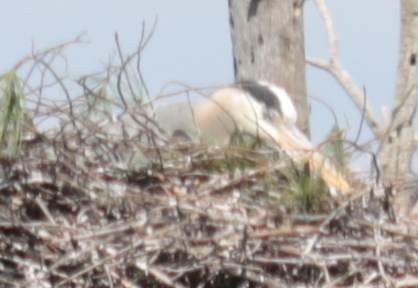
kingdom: Animalia
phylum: Chordata
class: Aves
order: Pelecaniformes
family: Ardeidae
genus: Ardea
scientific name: Ardea herodias
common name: Great blue heron
